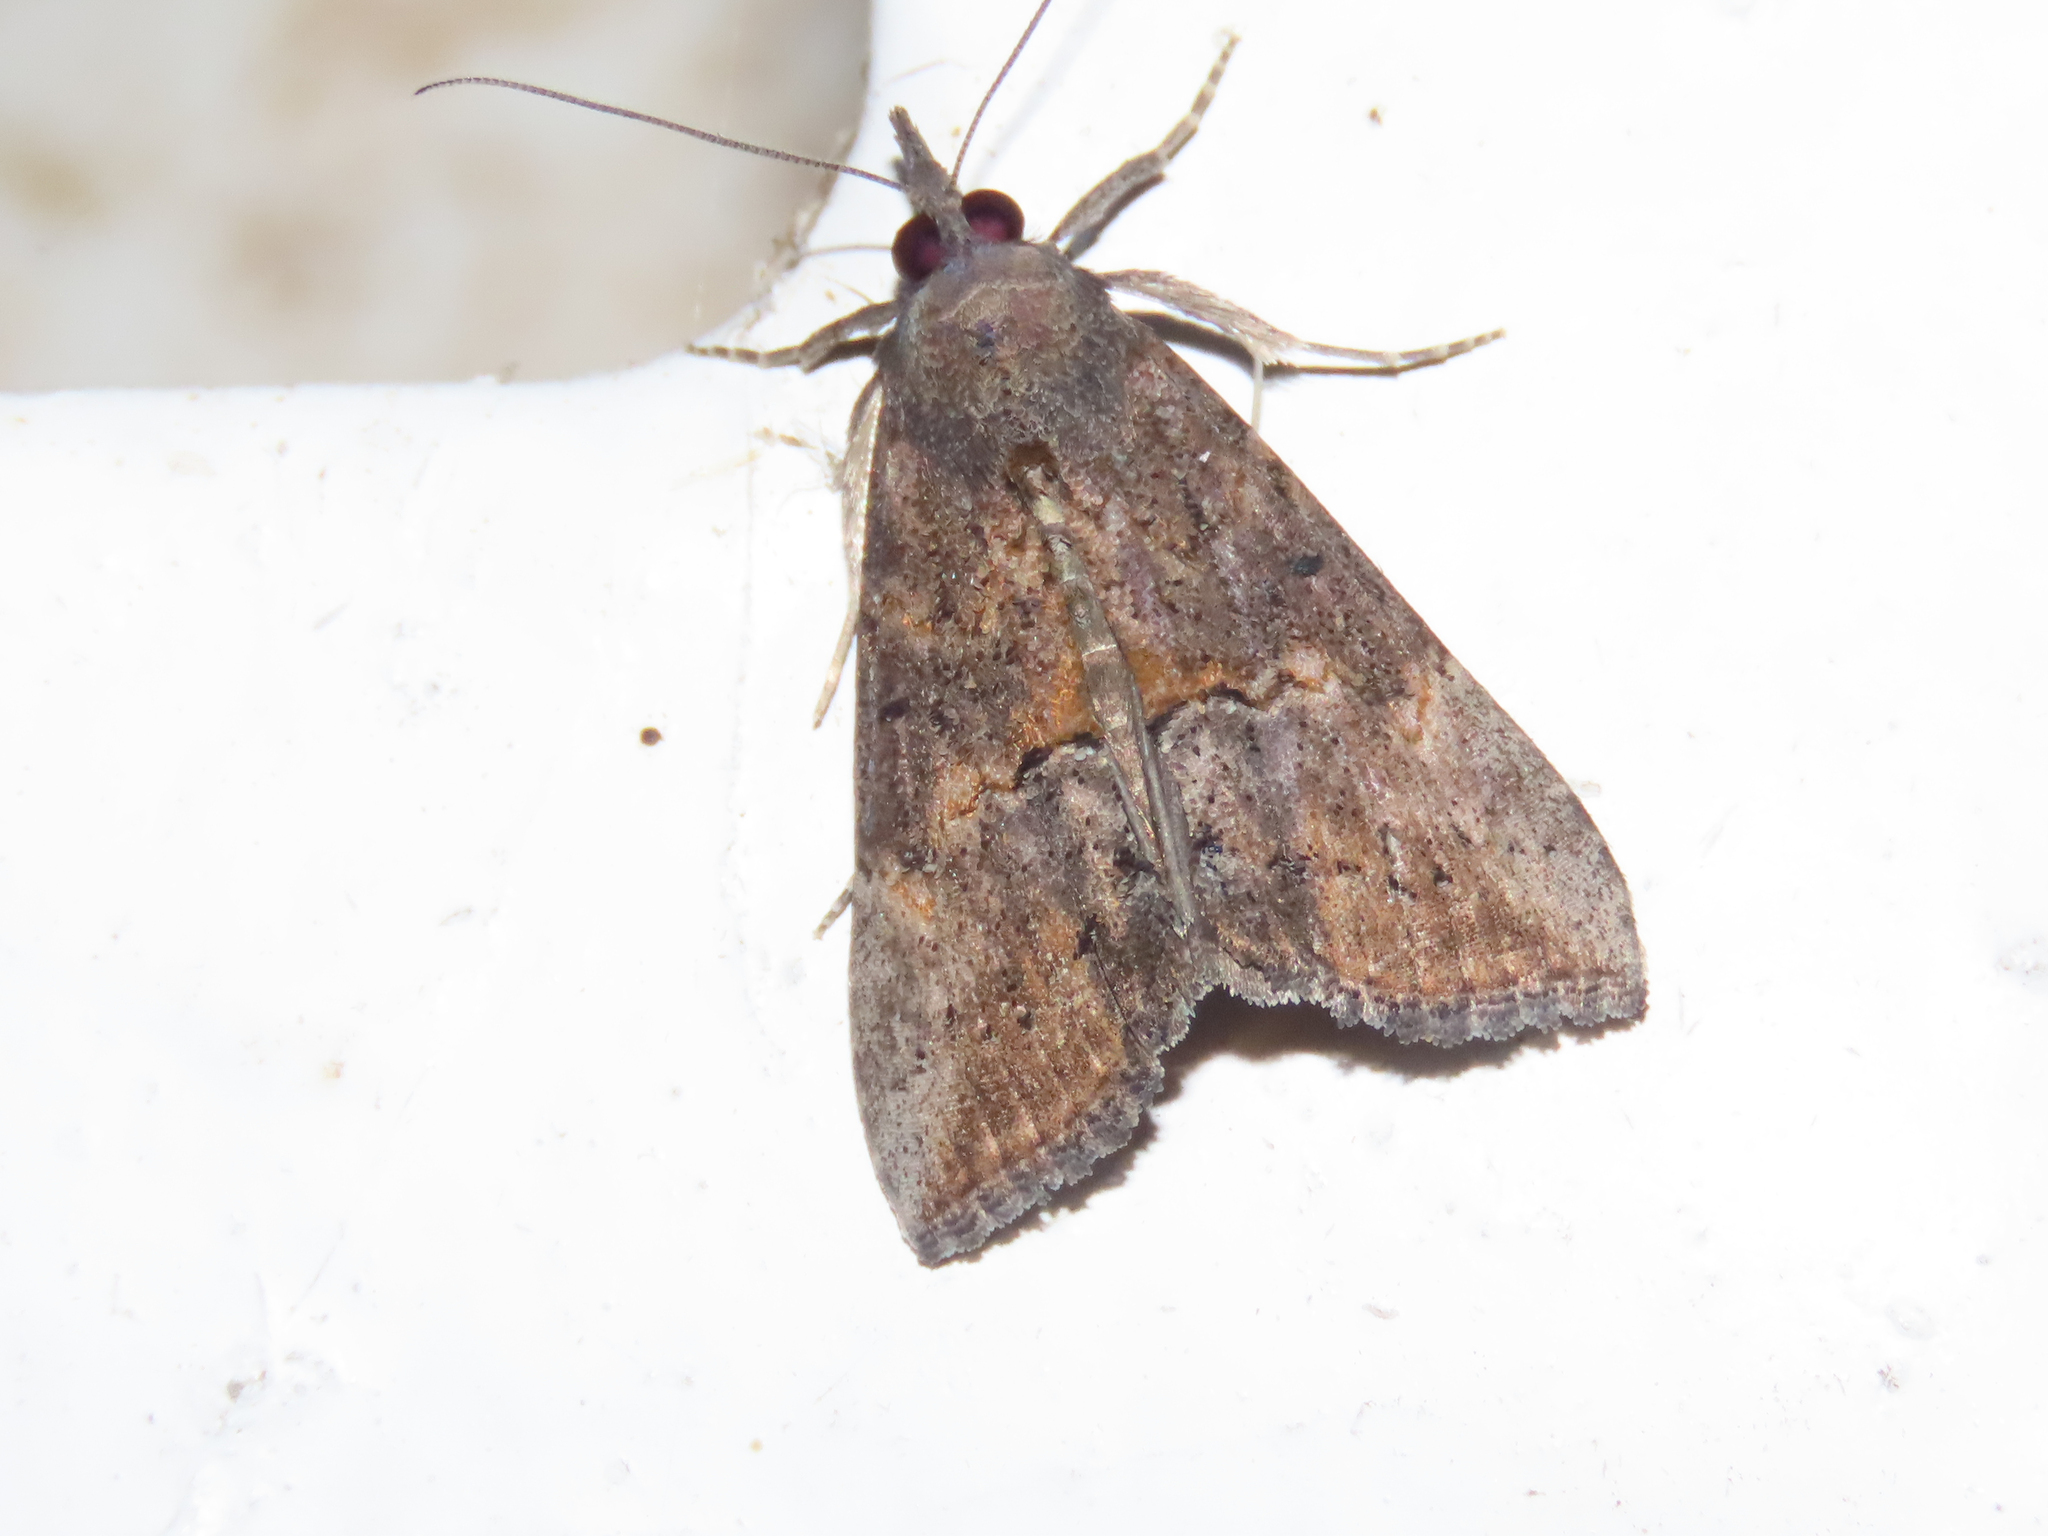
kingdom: Animalia
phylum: Arthropoda
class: Insecta
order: Lepidoptera
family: Erebidae
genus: Hypena
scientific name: Hypena scabra
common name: Green cloverworm
